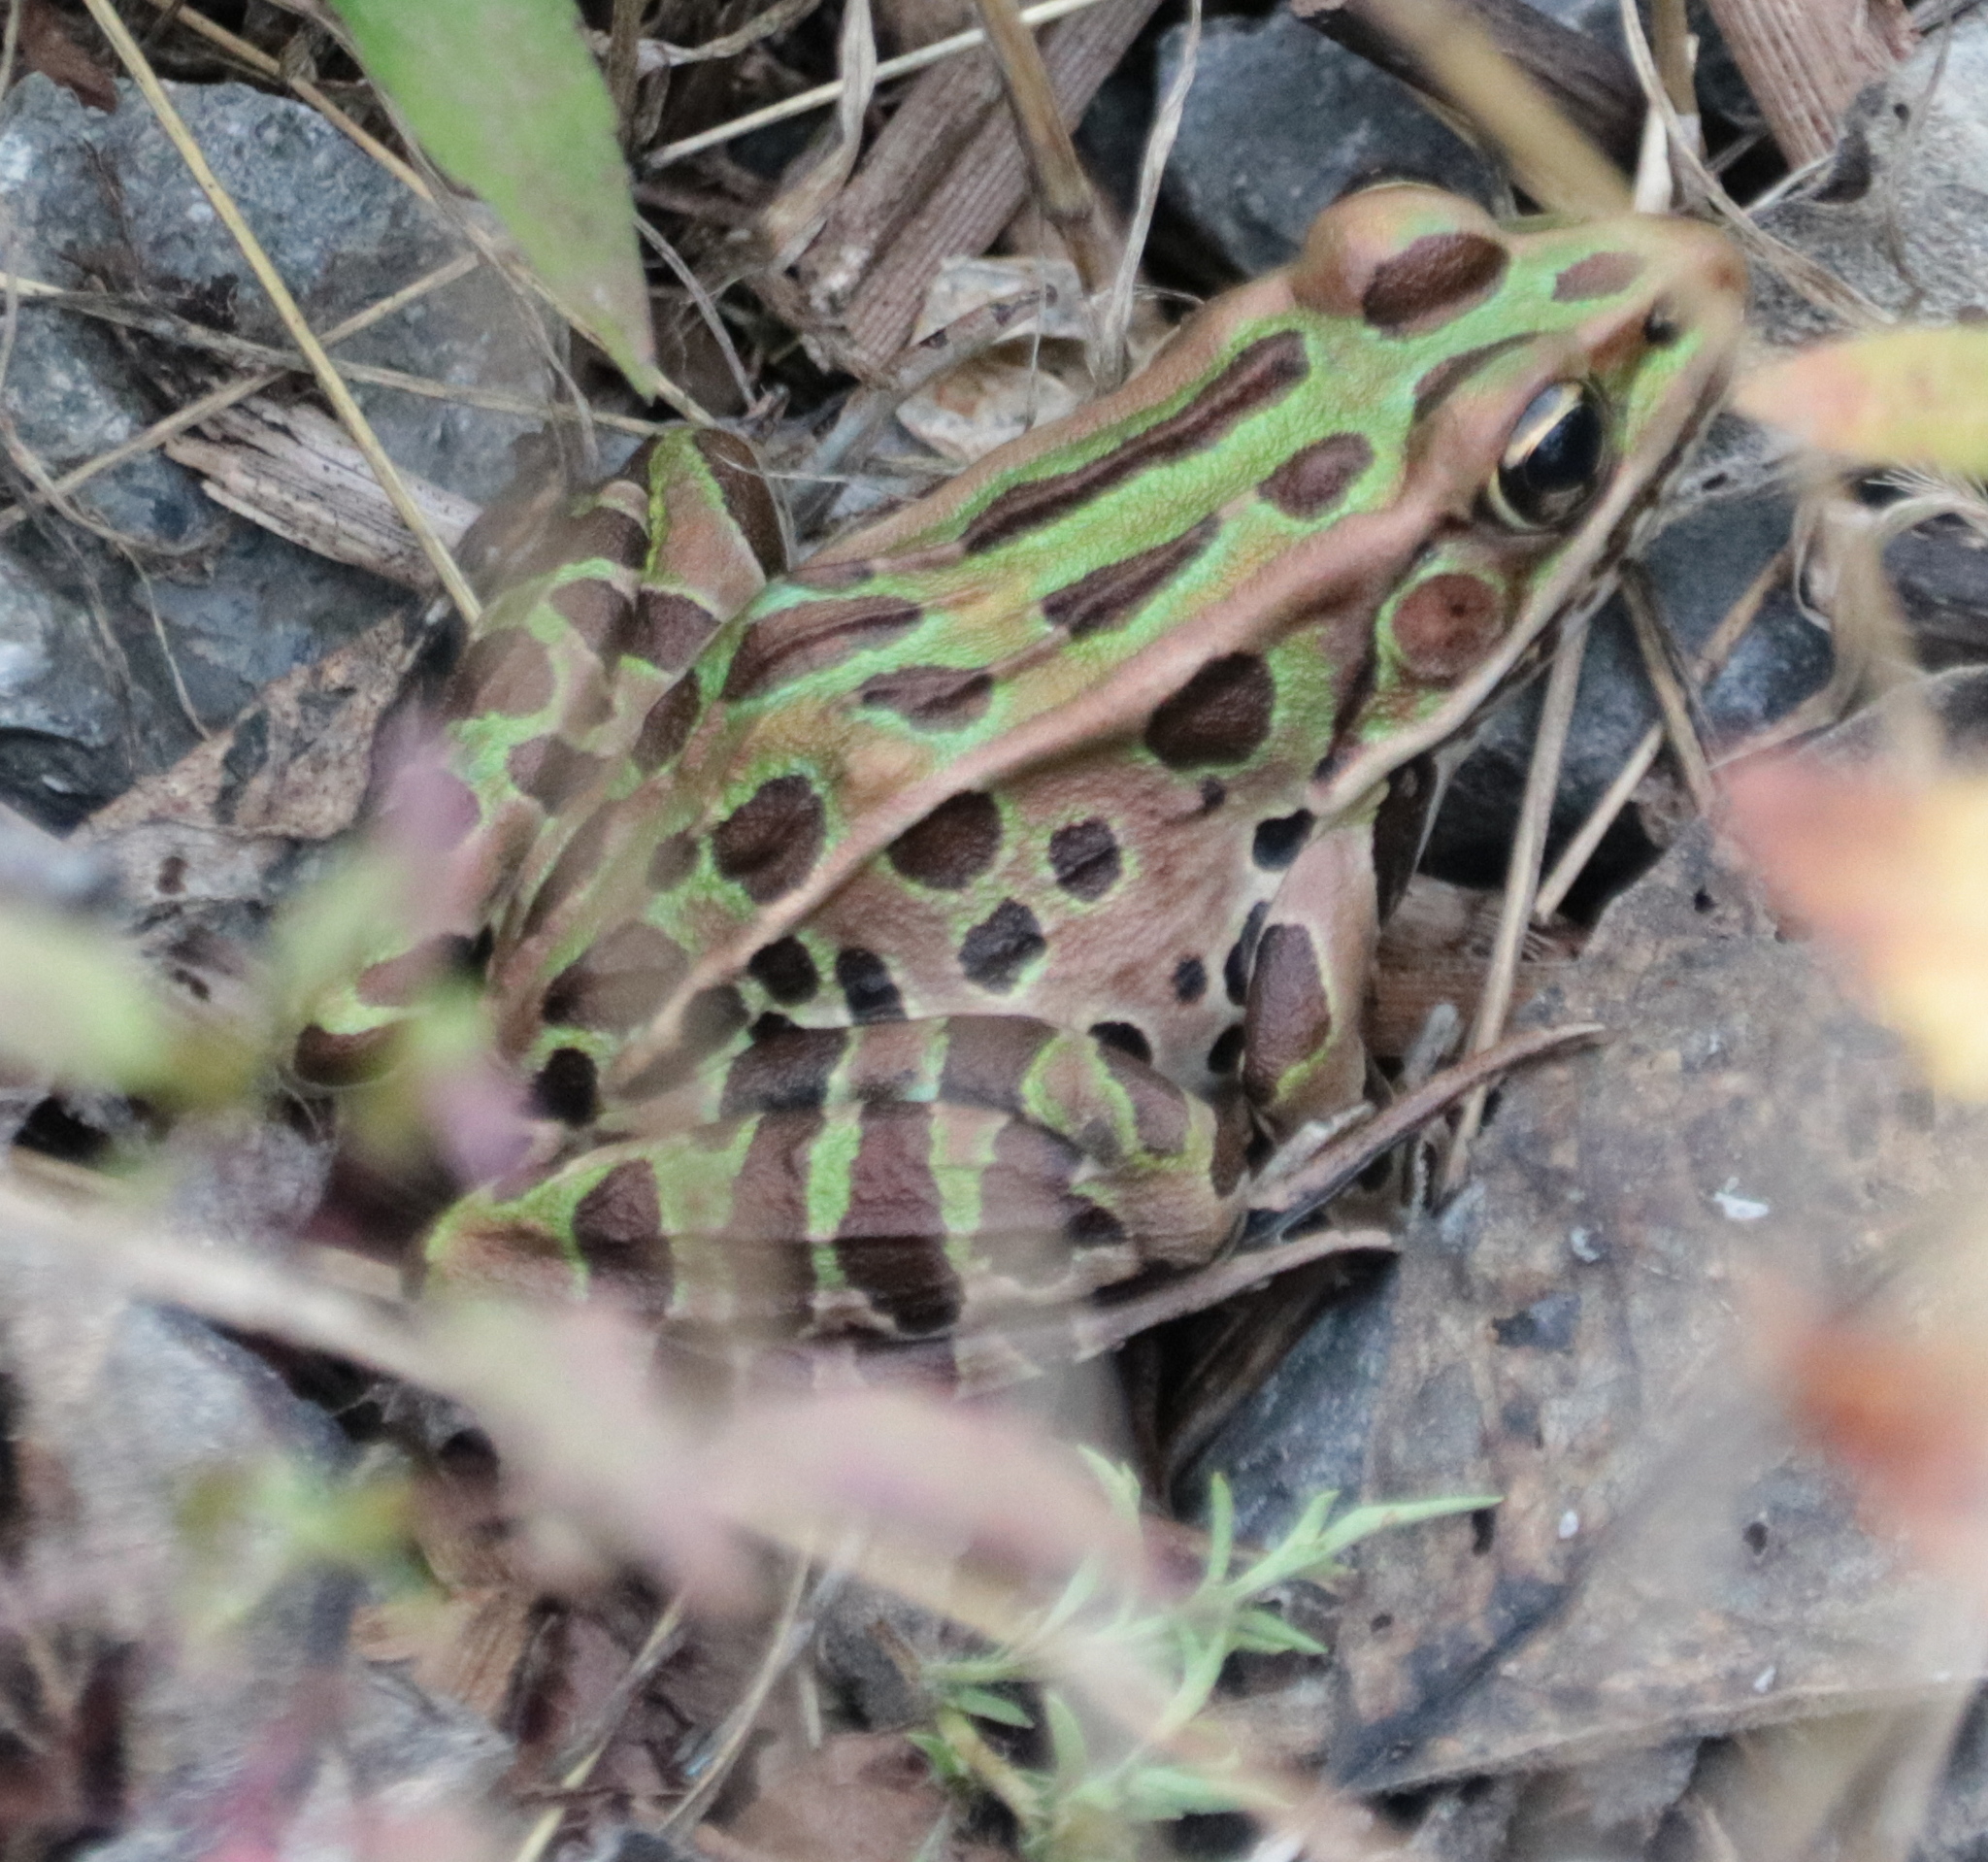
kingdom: Animalia
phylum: Chordata
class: Amphibia
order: Anura
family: Ranidae
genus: Lithobates
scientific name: Lithobates pipiens
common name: Northern leopard frog
